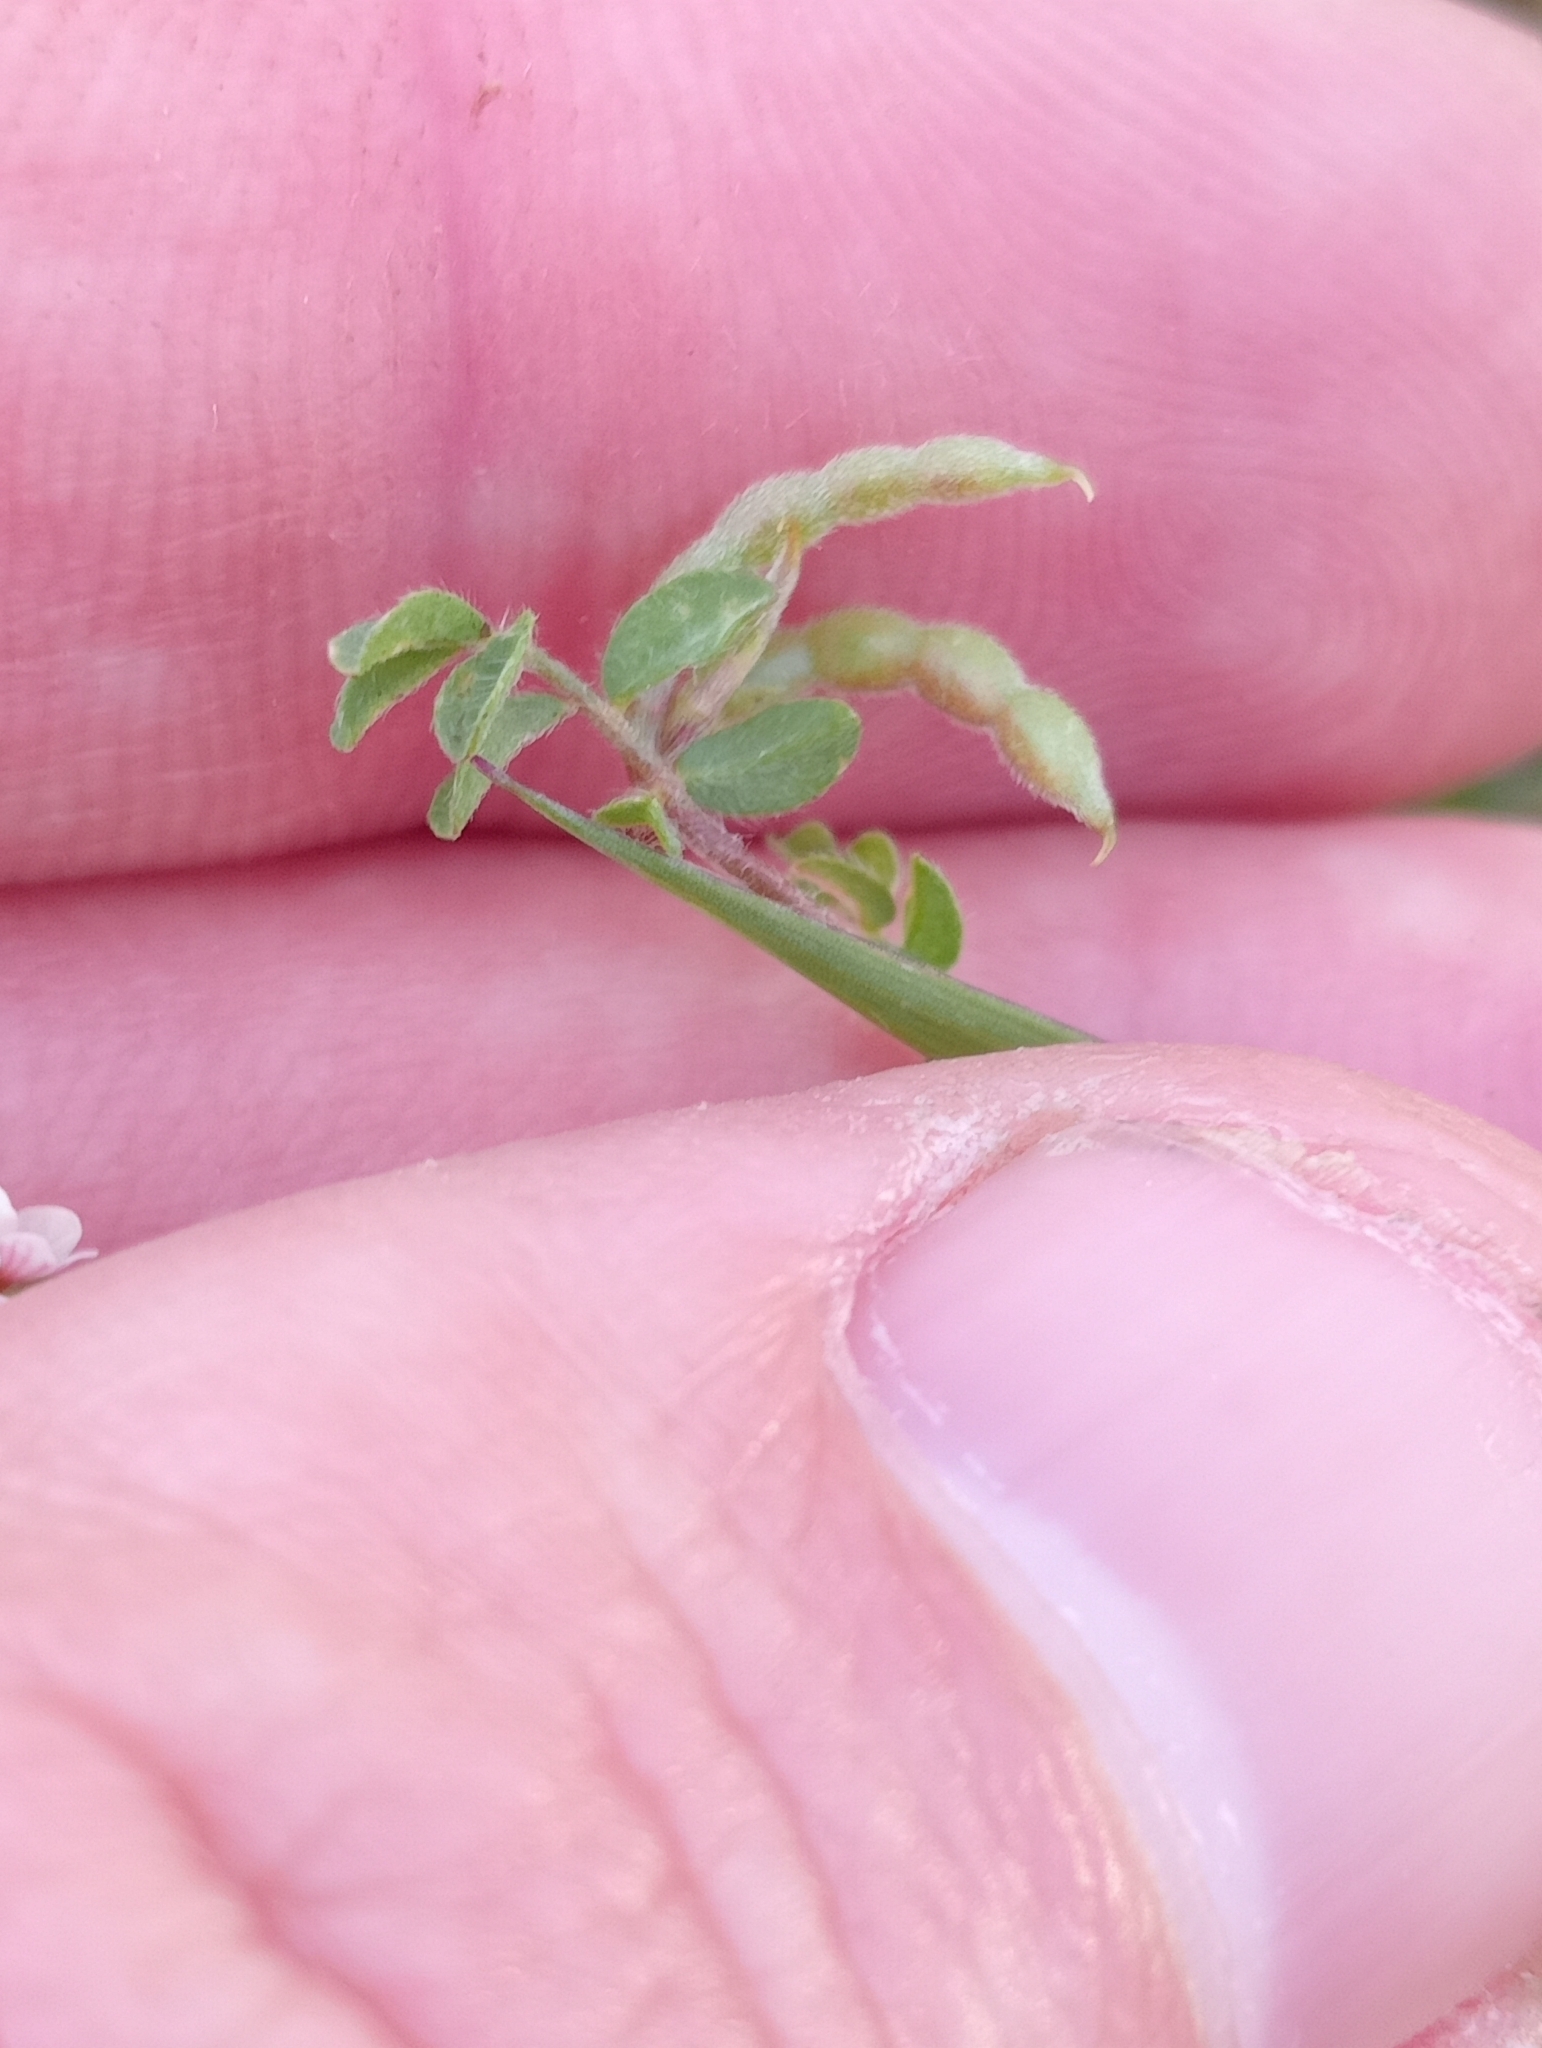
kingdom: Plantae
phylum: Tracheophyta
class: Magnoliopsida
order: Fabales
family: Fabaceae
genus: Ornithopus
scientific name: Ornithopus perpusillus
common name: Bird's-foot
